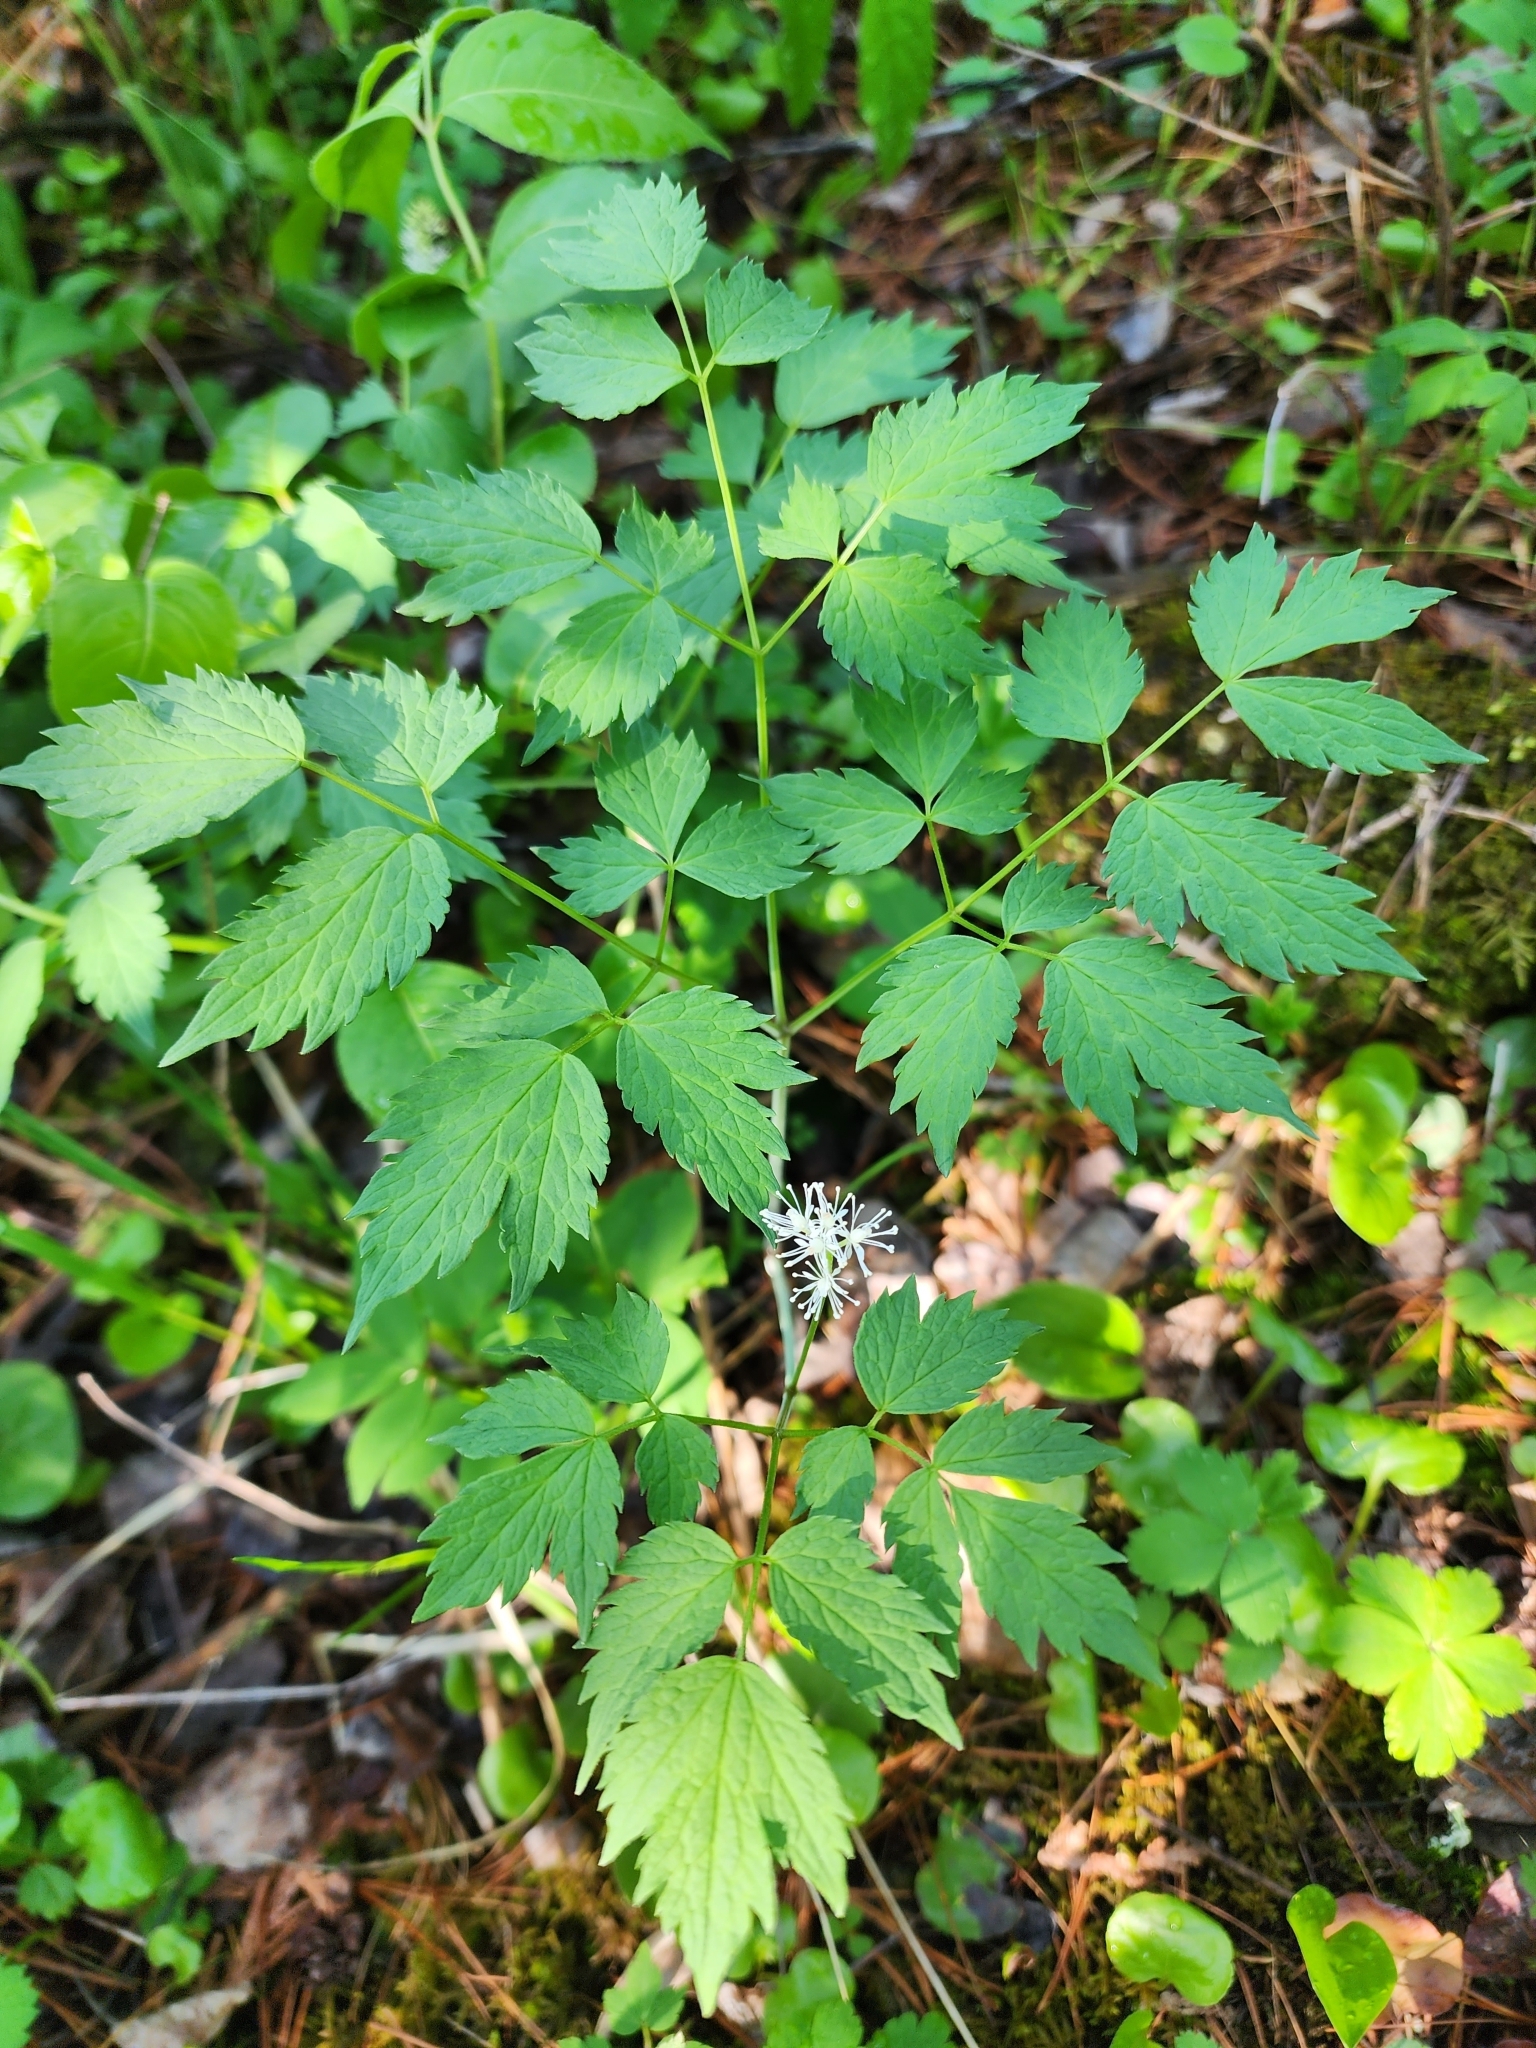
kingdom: Plantae
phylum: Tracheophyta
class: Magnoliopsida
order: Ranunculales
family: Ranunculaceae
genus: Actaea
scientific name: Actaea rubra
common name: Red baneberry
